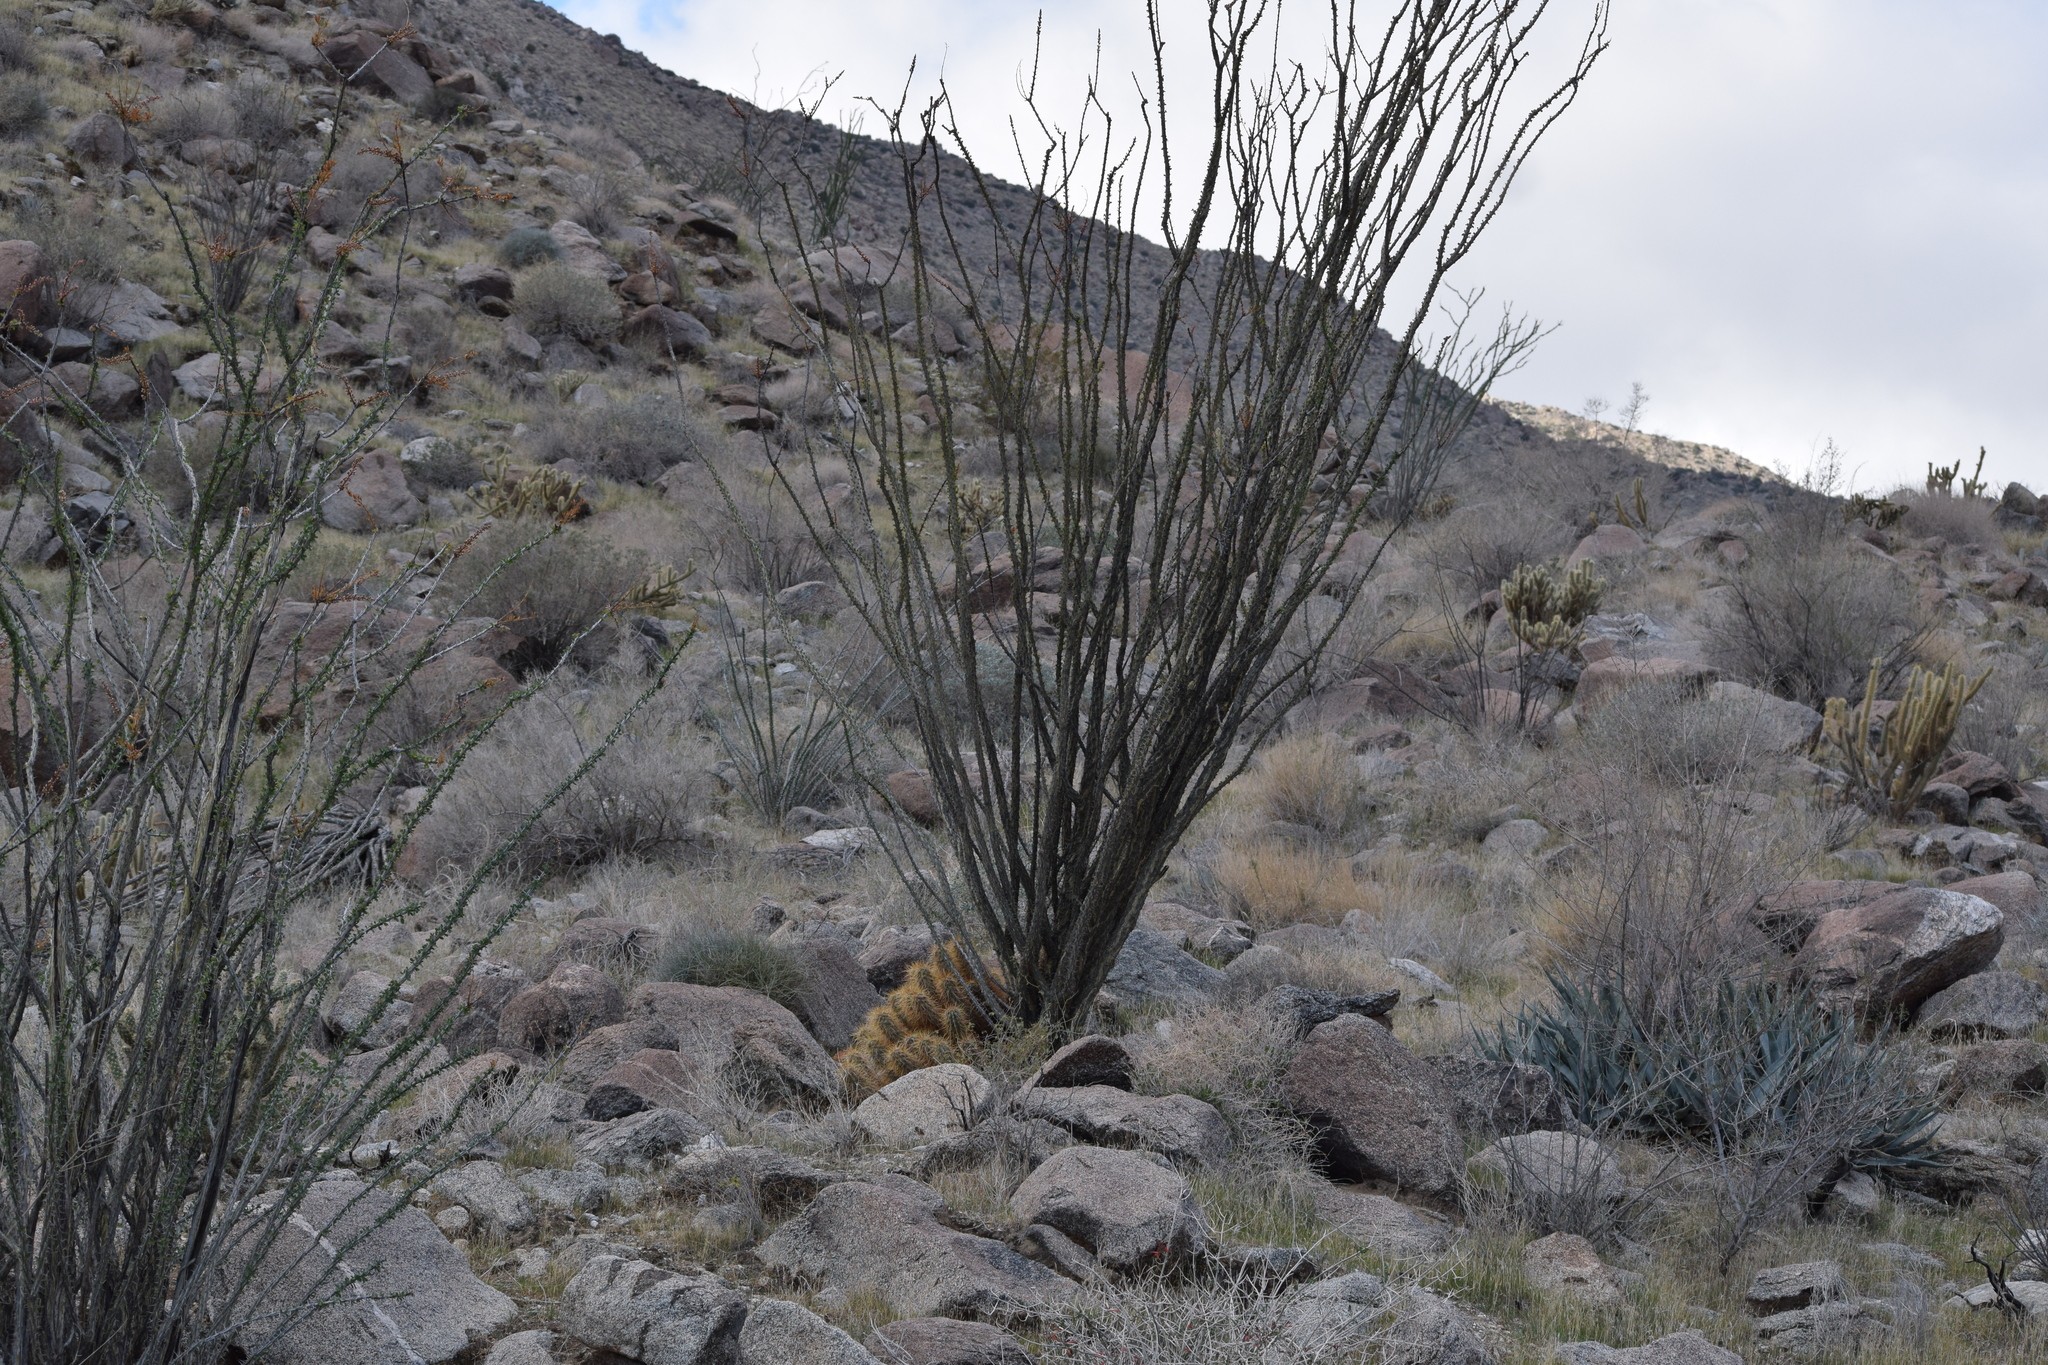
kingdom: Plantae
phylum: Tracheophyta
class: Magnoliopsida
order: Ericales
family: Fouquieriaceae
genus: Fouquieria
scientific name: Fouquieria splendens
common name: Vine-cactus
